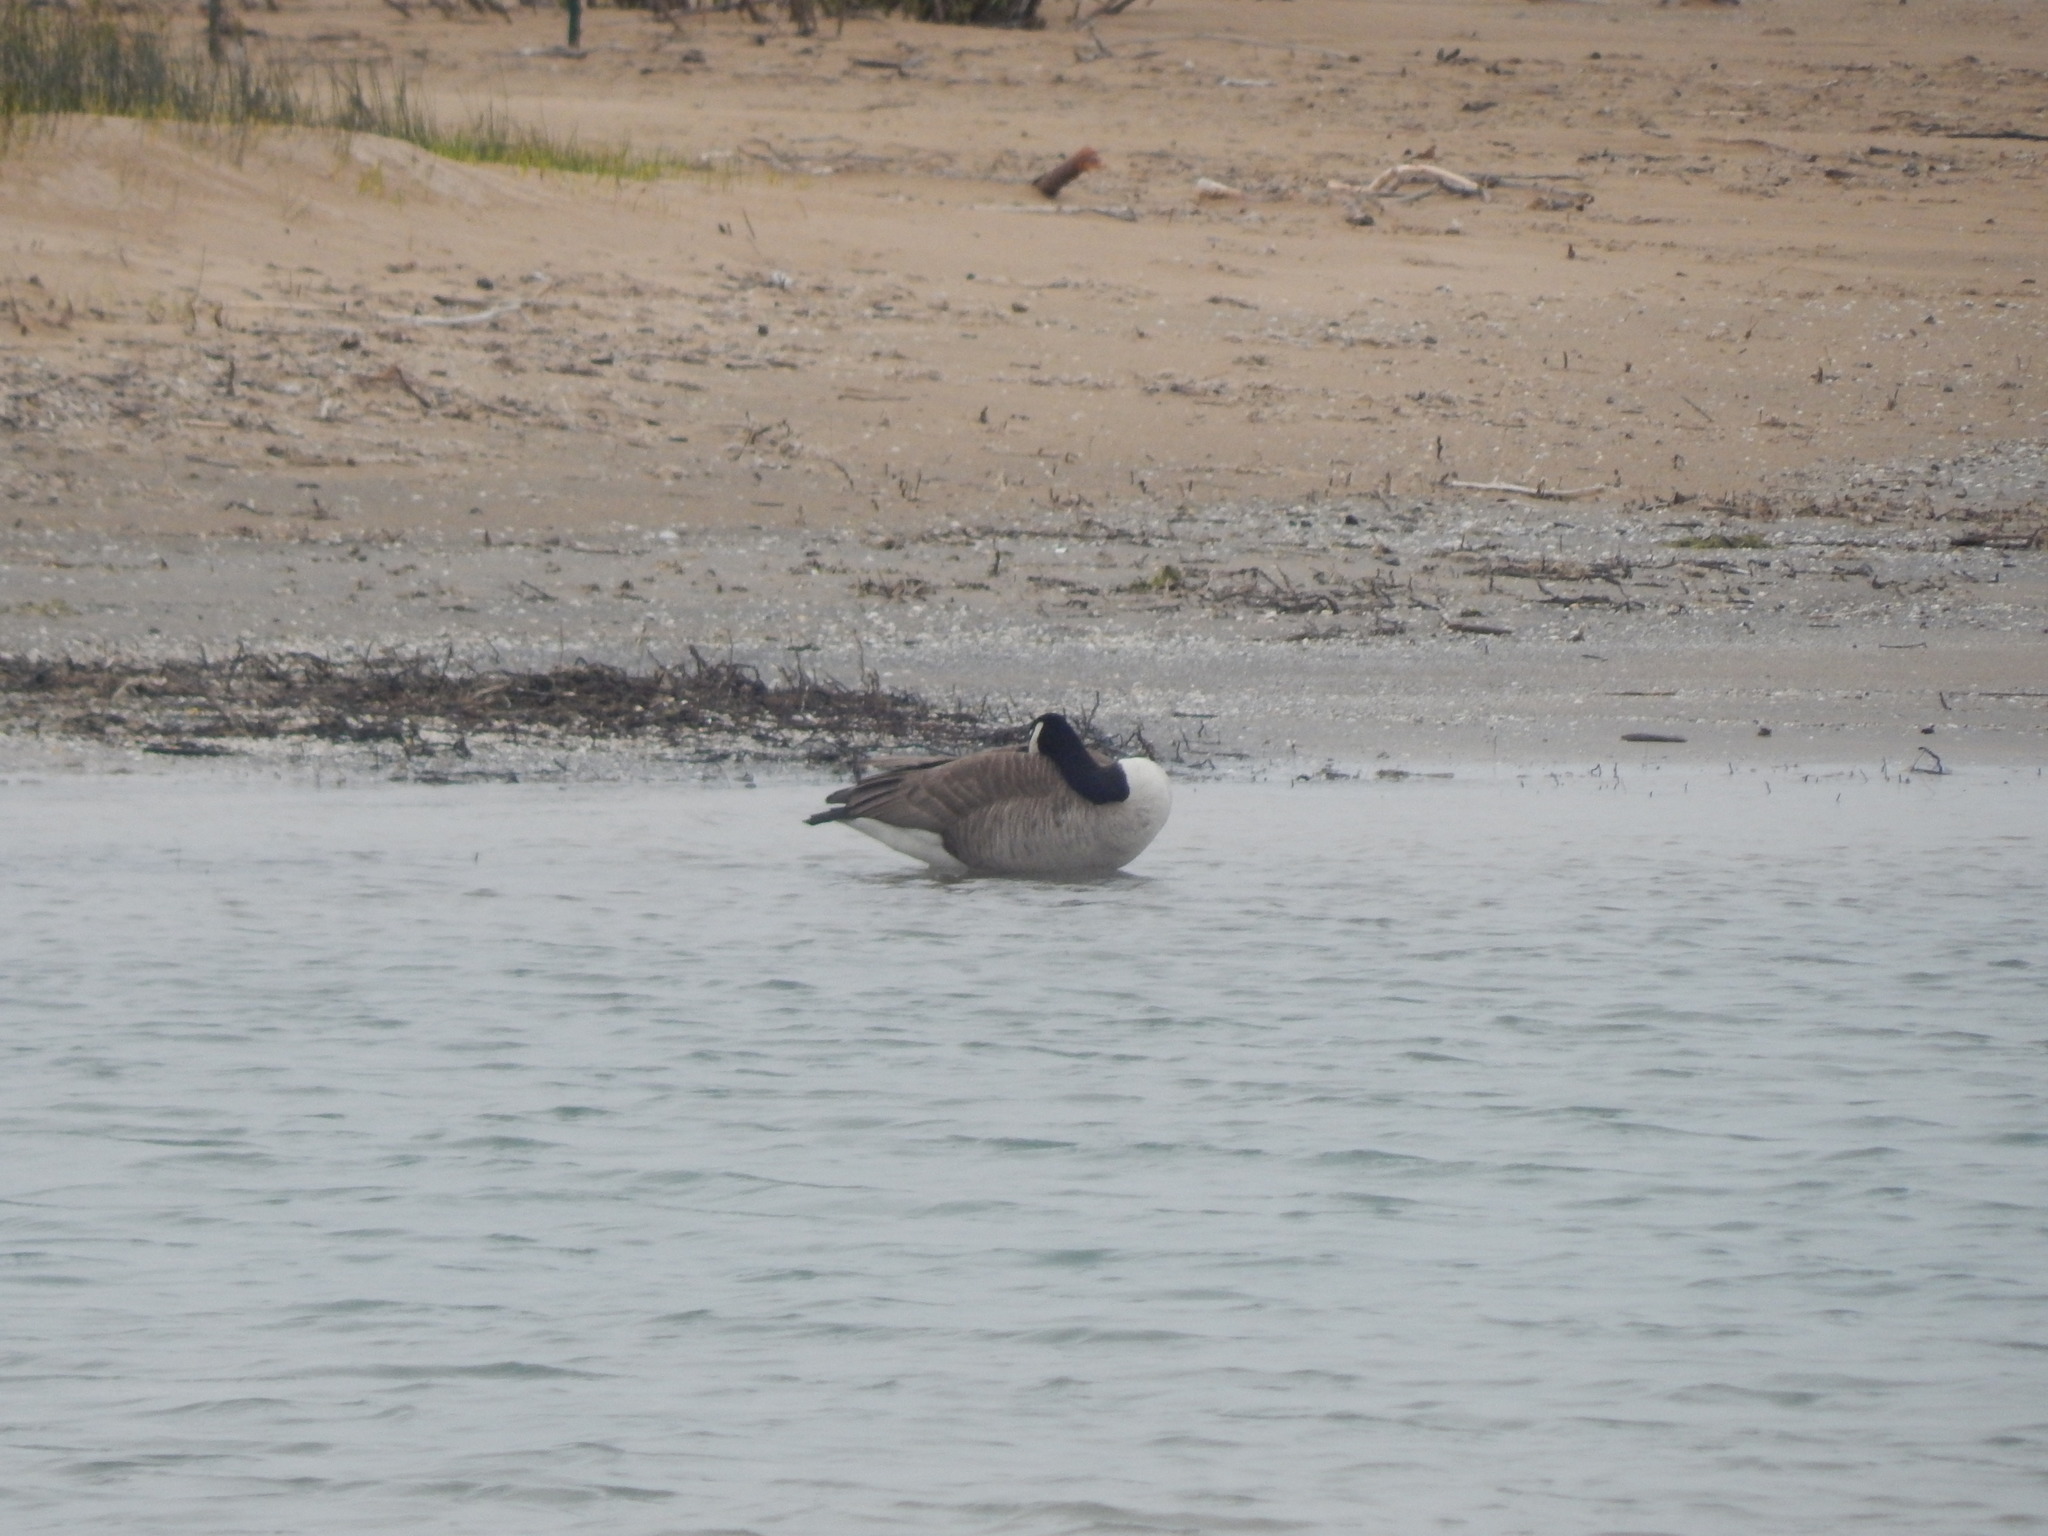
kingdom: Animalia
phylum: Chordata
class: Aves
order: Anseriformes
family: Anatidae
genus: Branta
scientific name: Branta canadensis
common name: Canada goose
